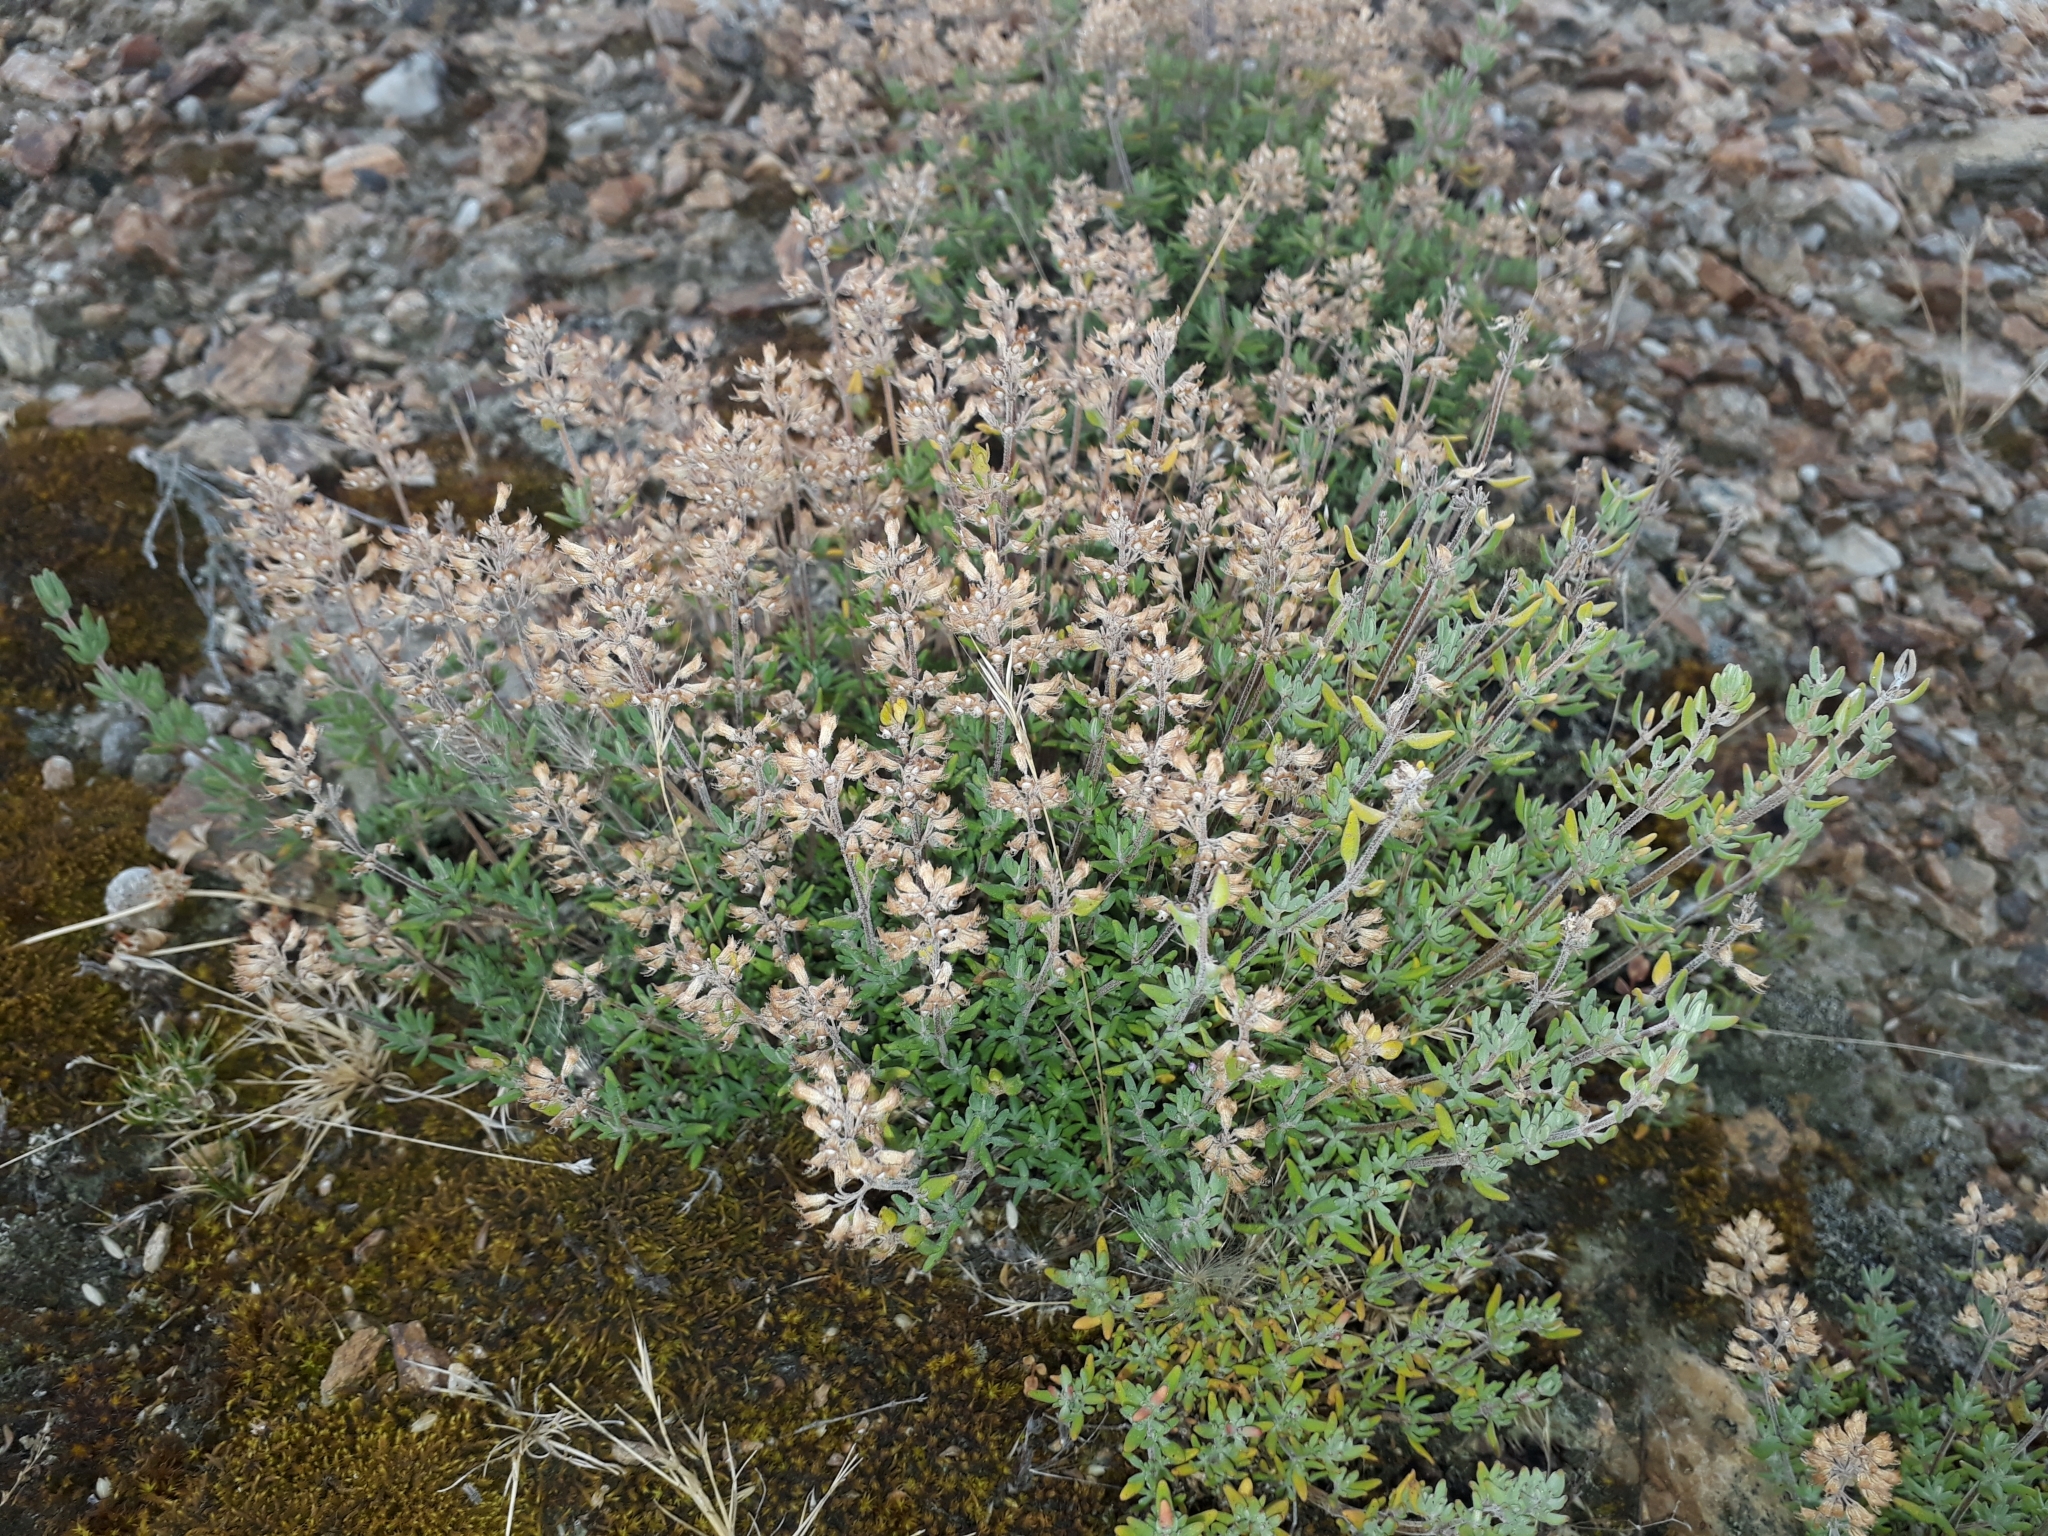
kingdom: Plantae
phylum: Tracheophyta
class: Magnoliopsida
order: Lamiales
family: Lamiaceae
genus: Thymus
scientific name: Thymus vulgaris
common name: Garden thyme
